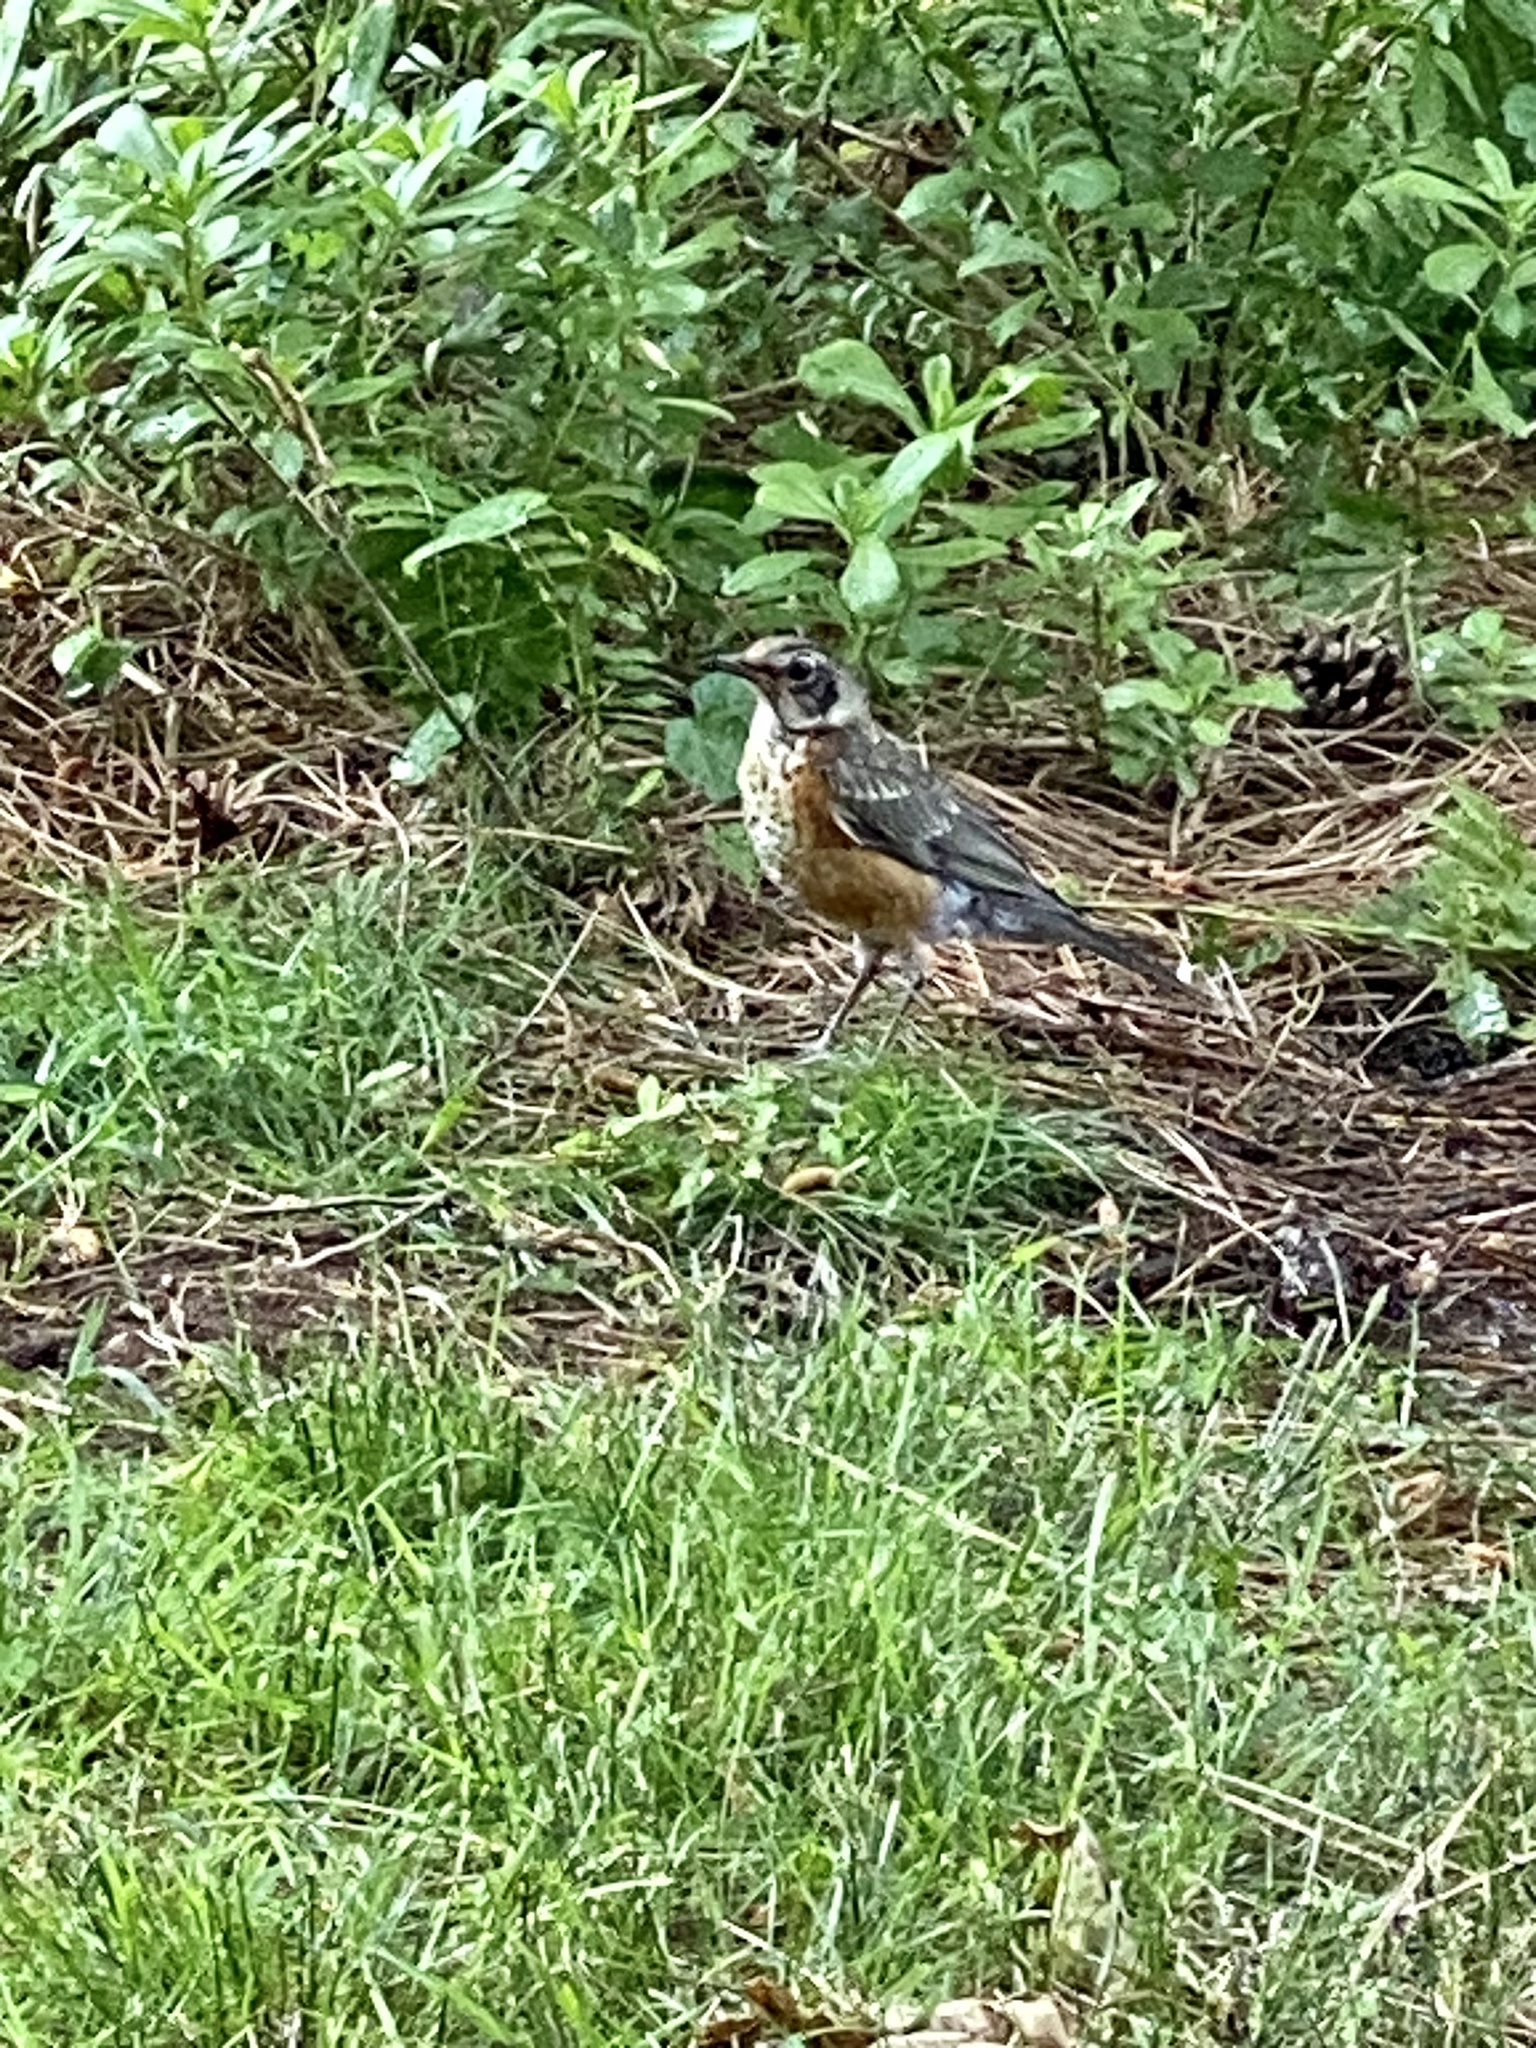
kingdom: Animalia
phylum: Chordata
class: Aves
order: Passeriformes
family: Turdidae
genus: Turdus
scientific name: Turdus migratorius
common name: American robin
